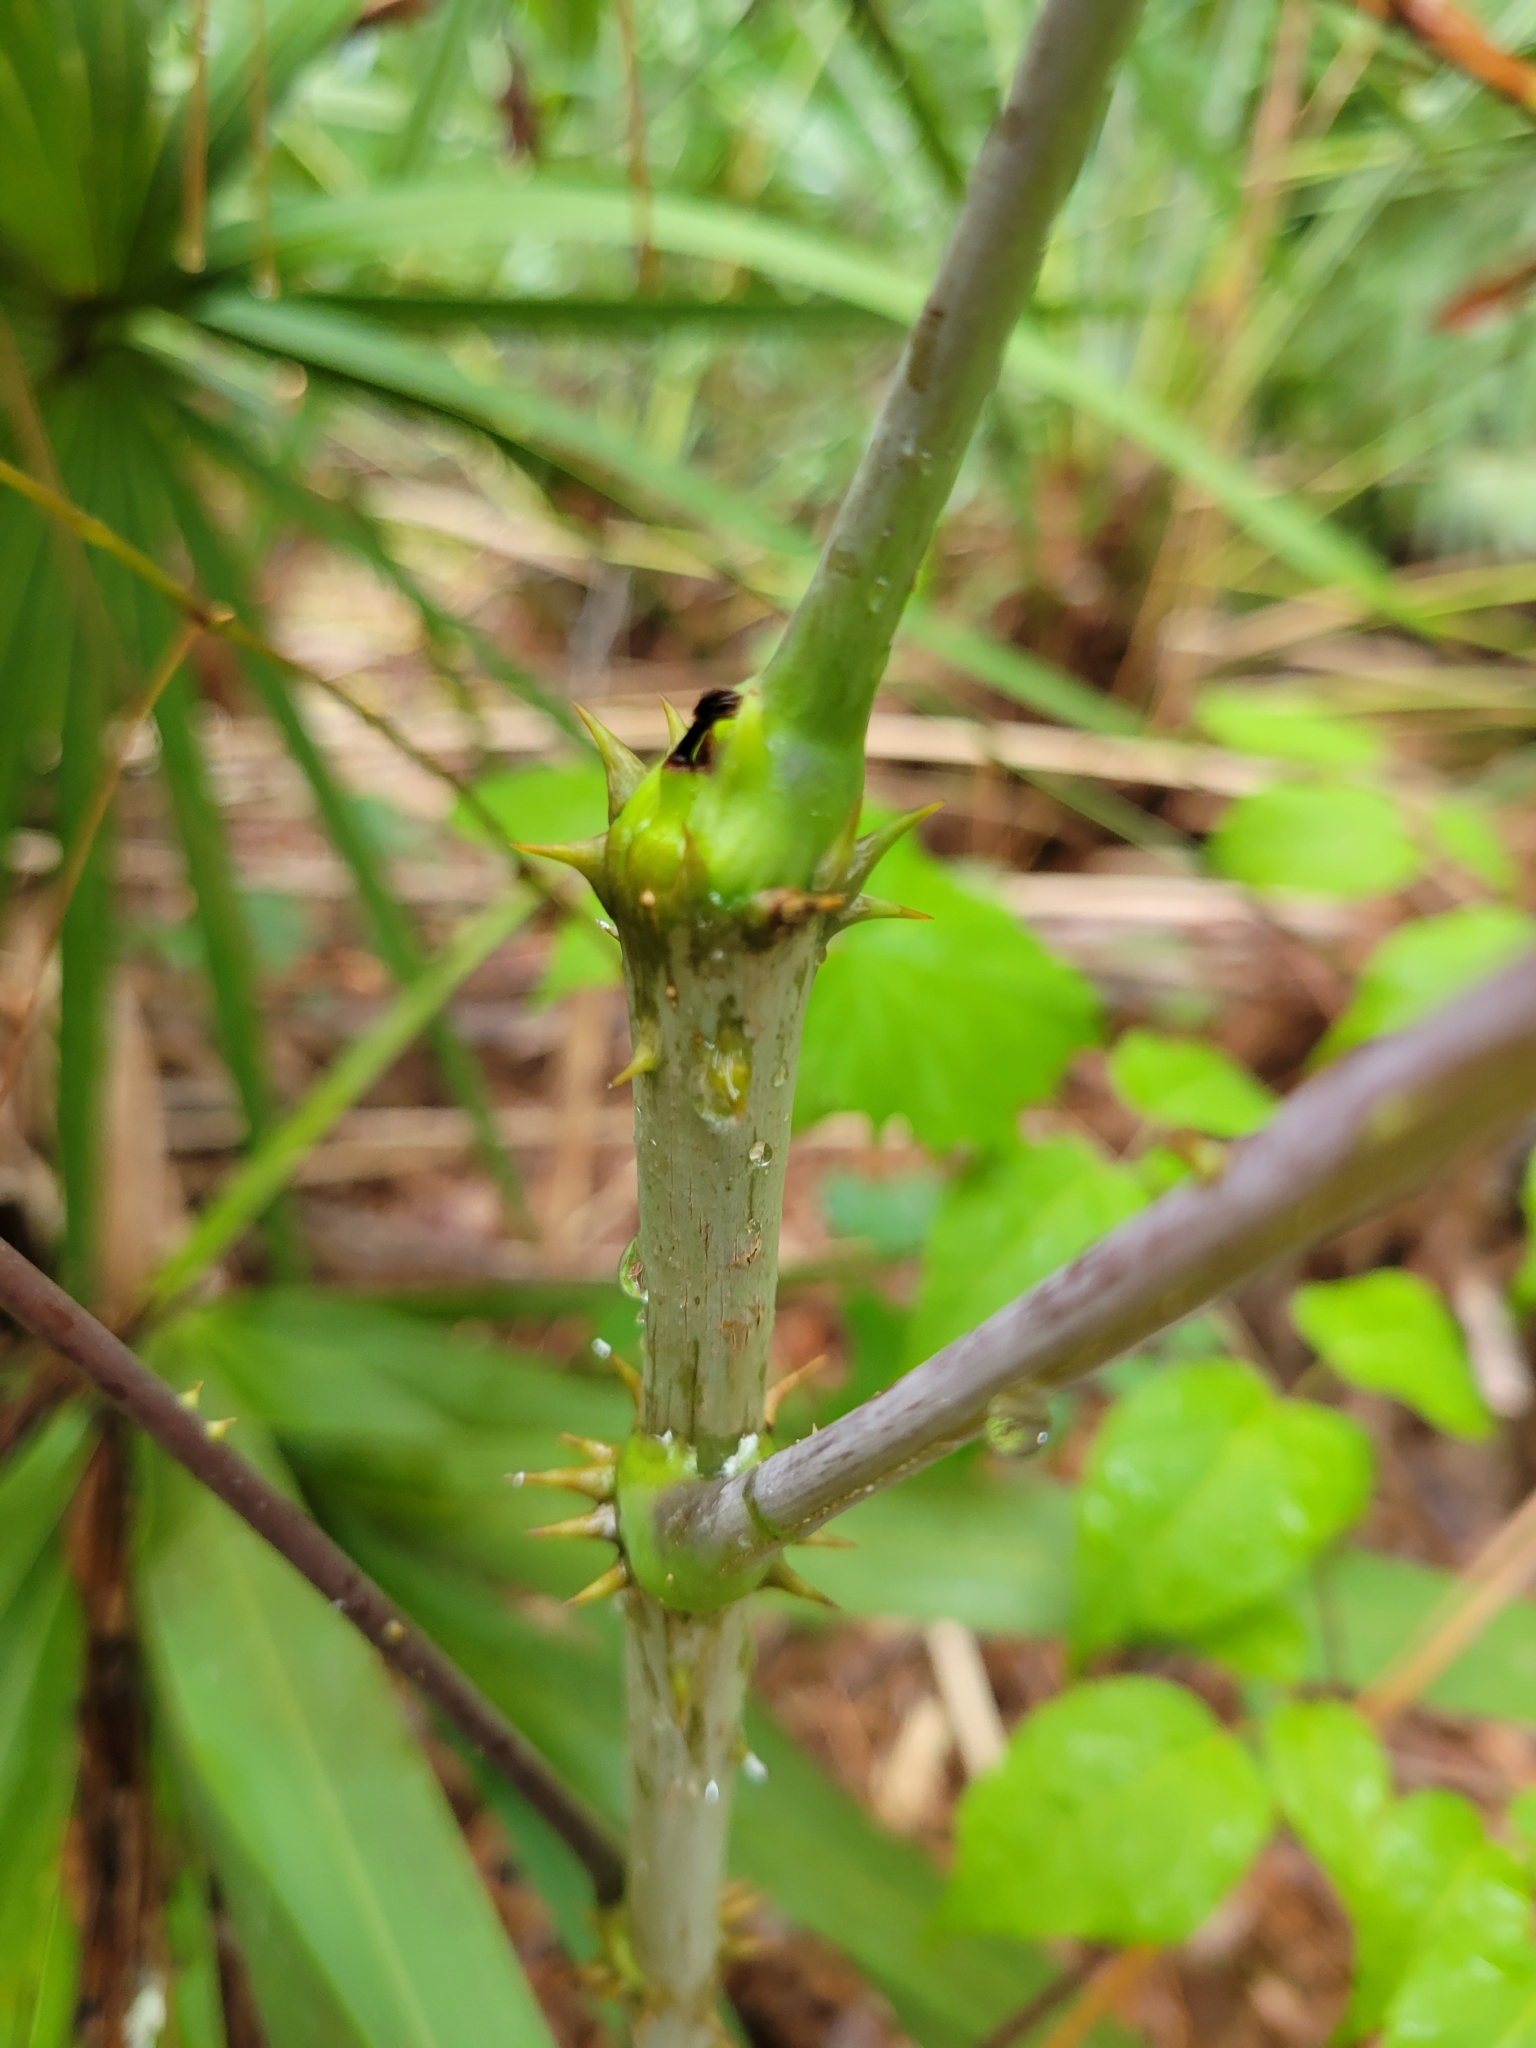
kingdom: Plantae
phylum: Tracheophyta
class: Magnoliopsida
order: Apiales
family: Araliaceae
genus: Aralia
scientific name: Aralia spinosa
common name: Hercules'-club
